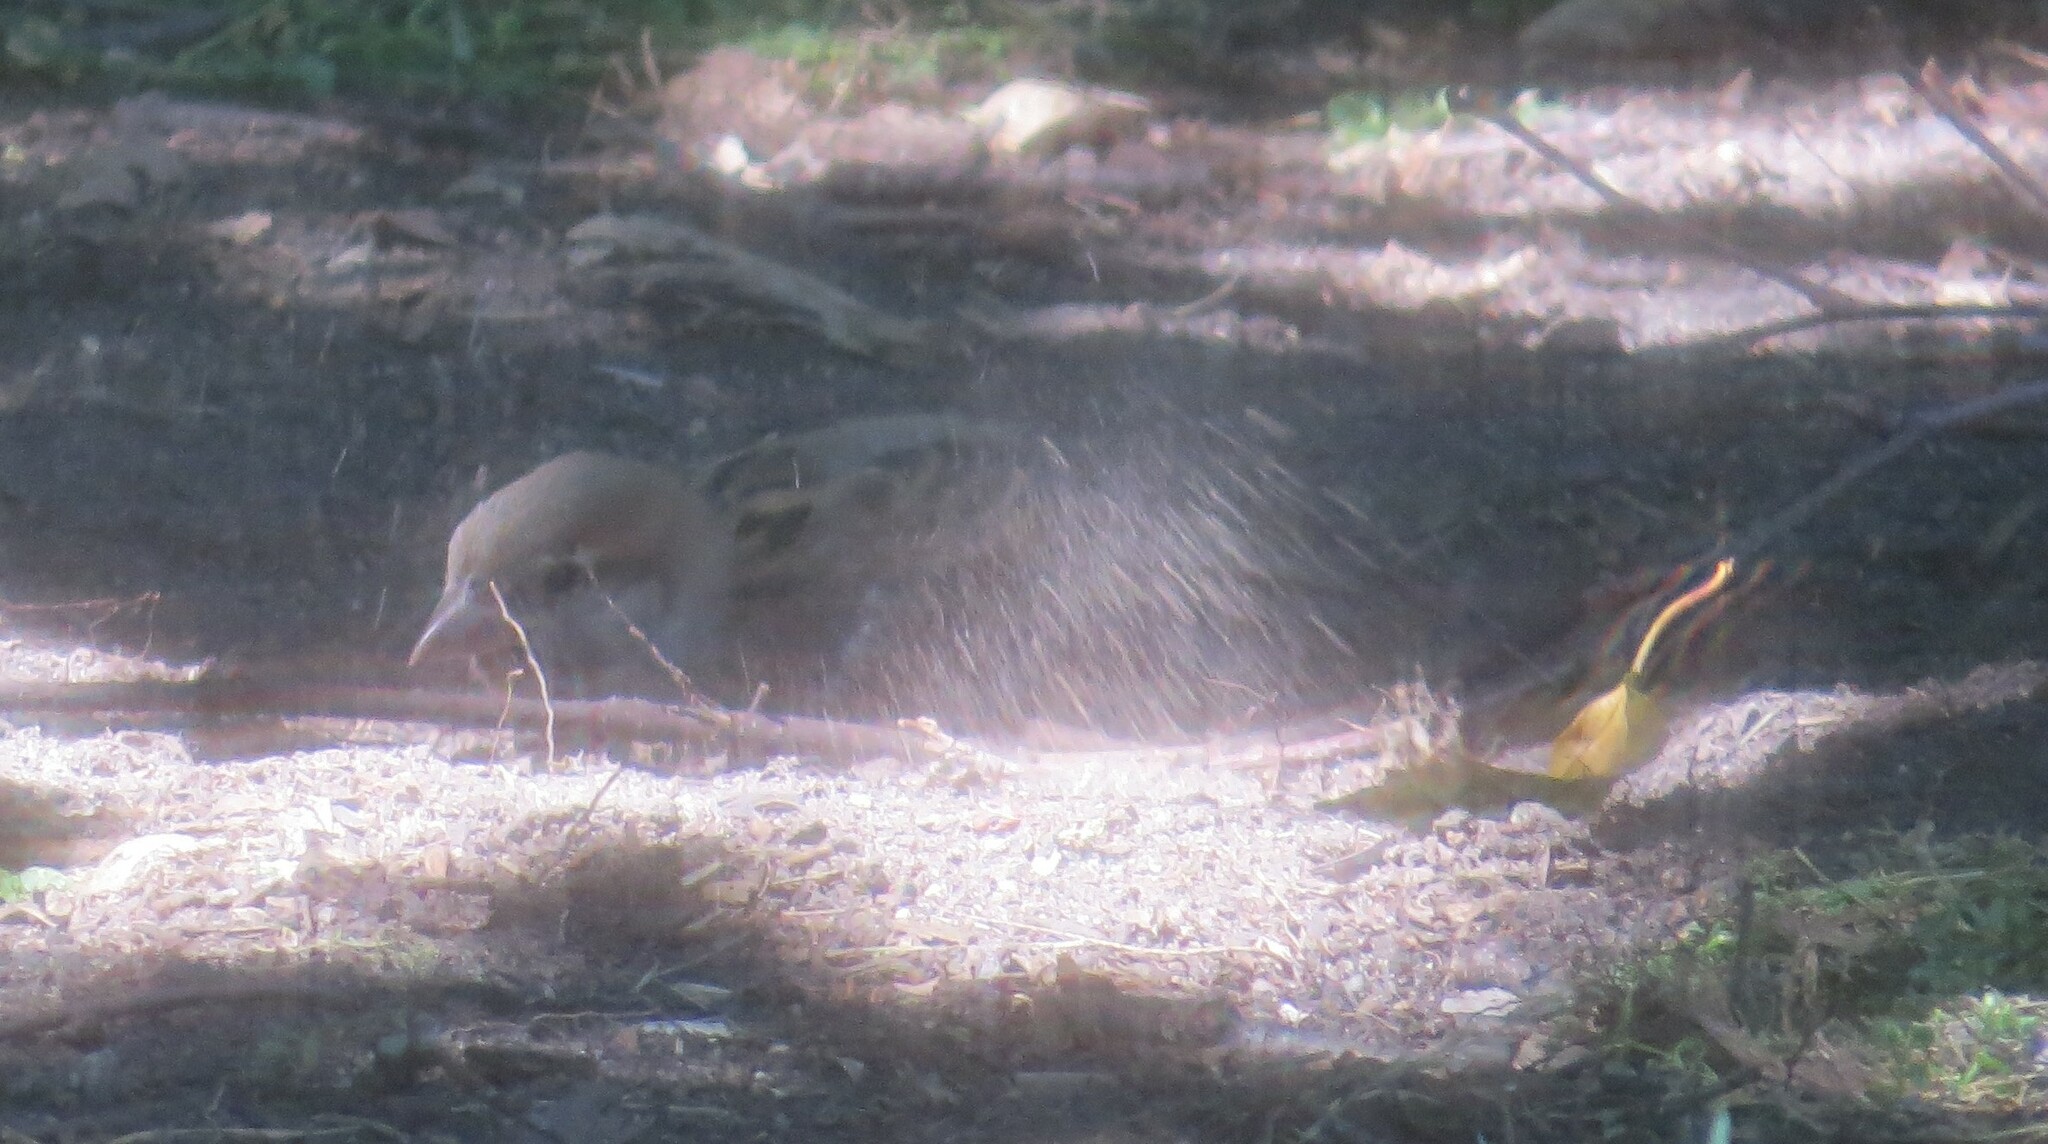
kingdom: Animalia
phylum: Chordata
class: Aves
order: Passeriformes
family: Passeridae
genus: Passer
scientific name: Passer domesticus
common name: House sparrow
